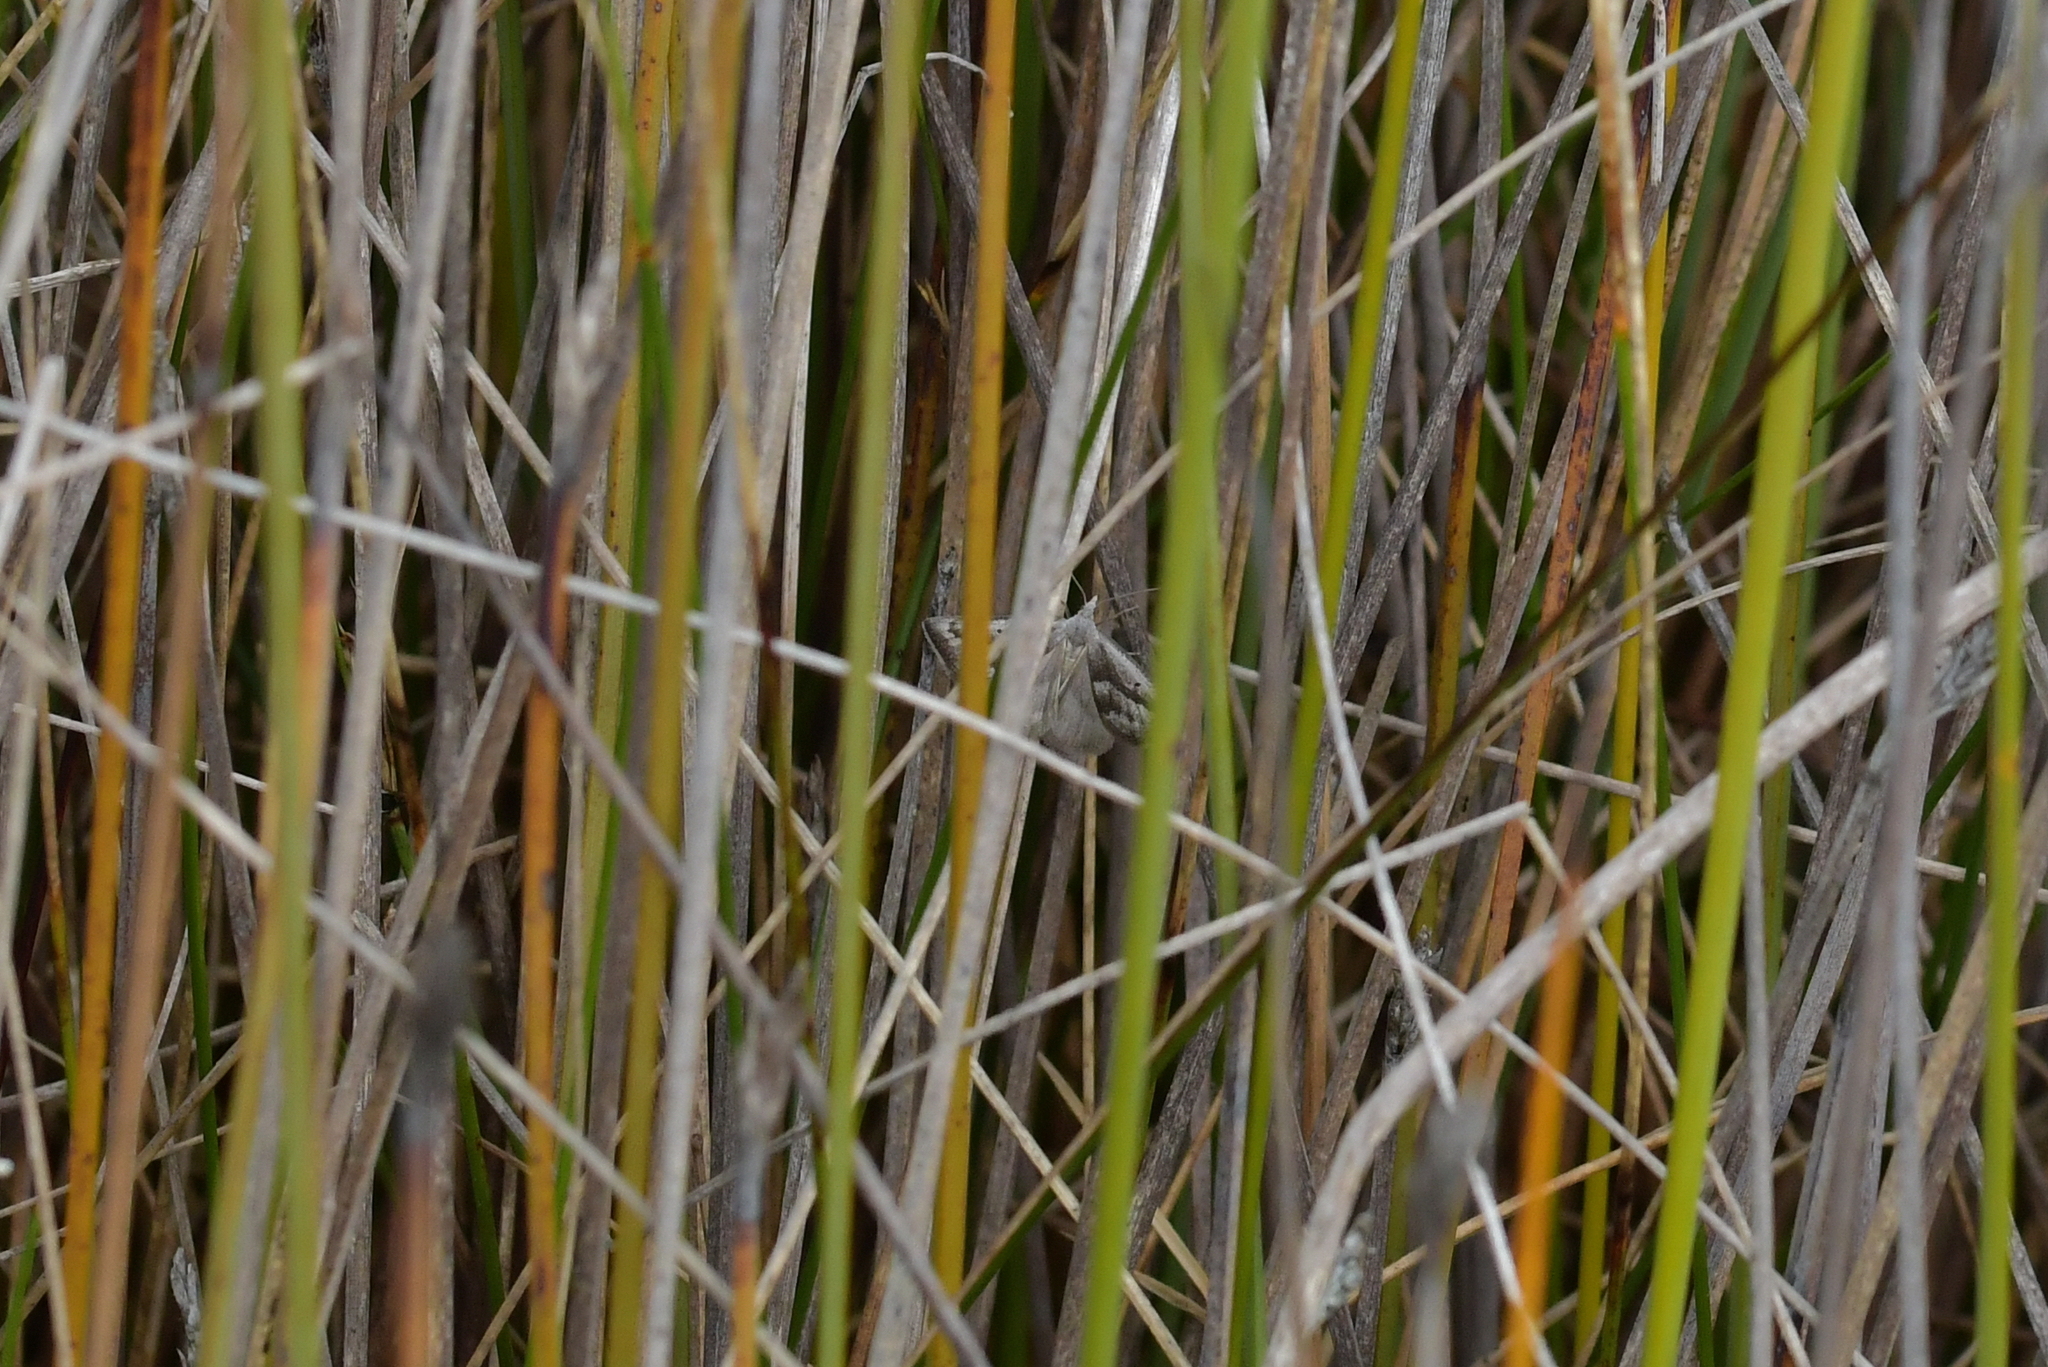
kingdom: Animalia
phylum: Arthropoda
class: Insecta
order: Lepidoptera
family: Geometridae
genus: Adeixis
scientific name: Adeixis griseata
